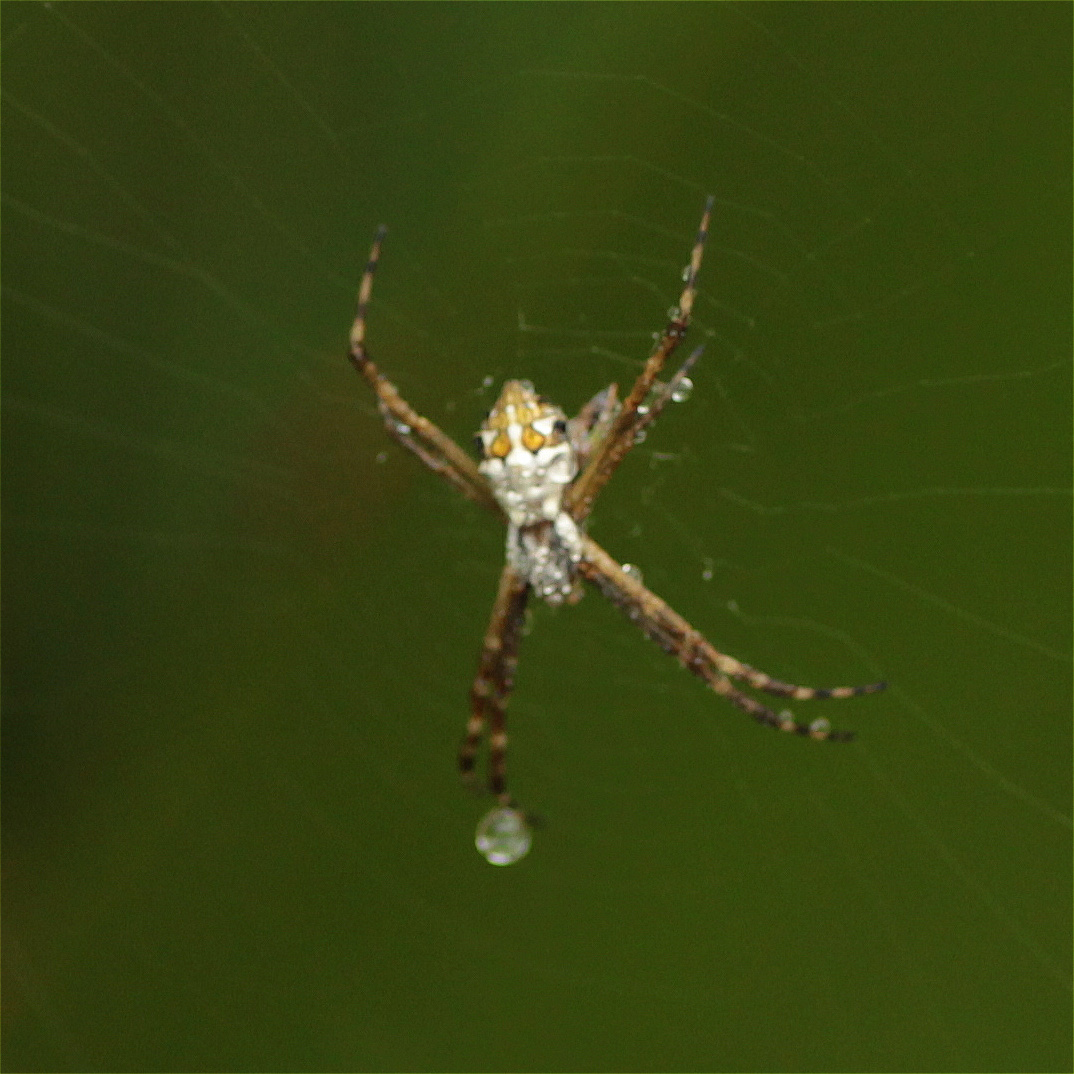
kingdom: Animalia
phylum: Arthropoda
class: Arachnida
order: Araneae
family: Araneidae
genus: Argiope
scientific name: Argiope argentata
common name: Orb weavers
